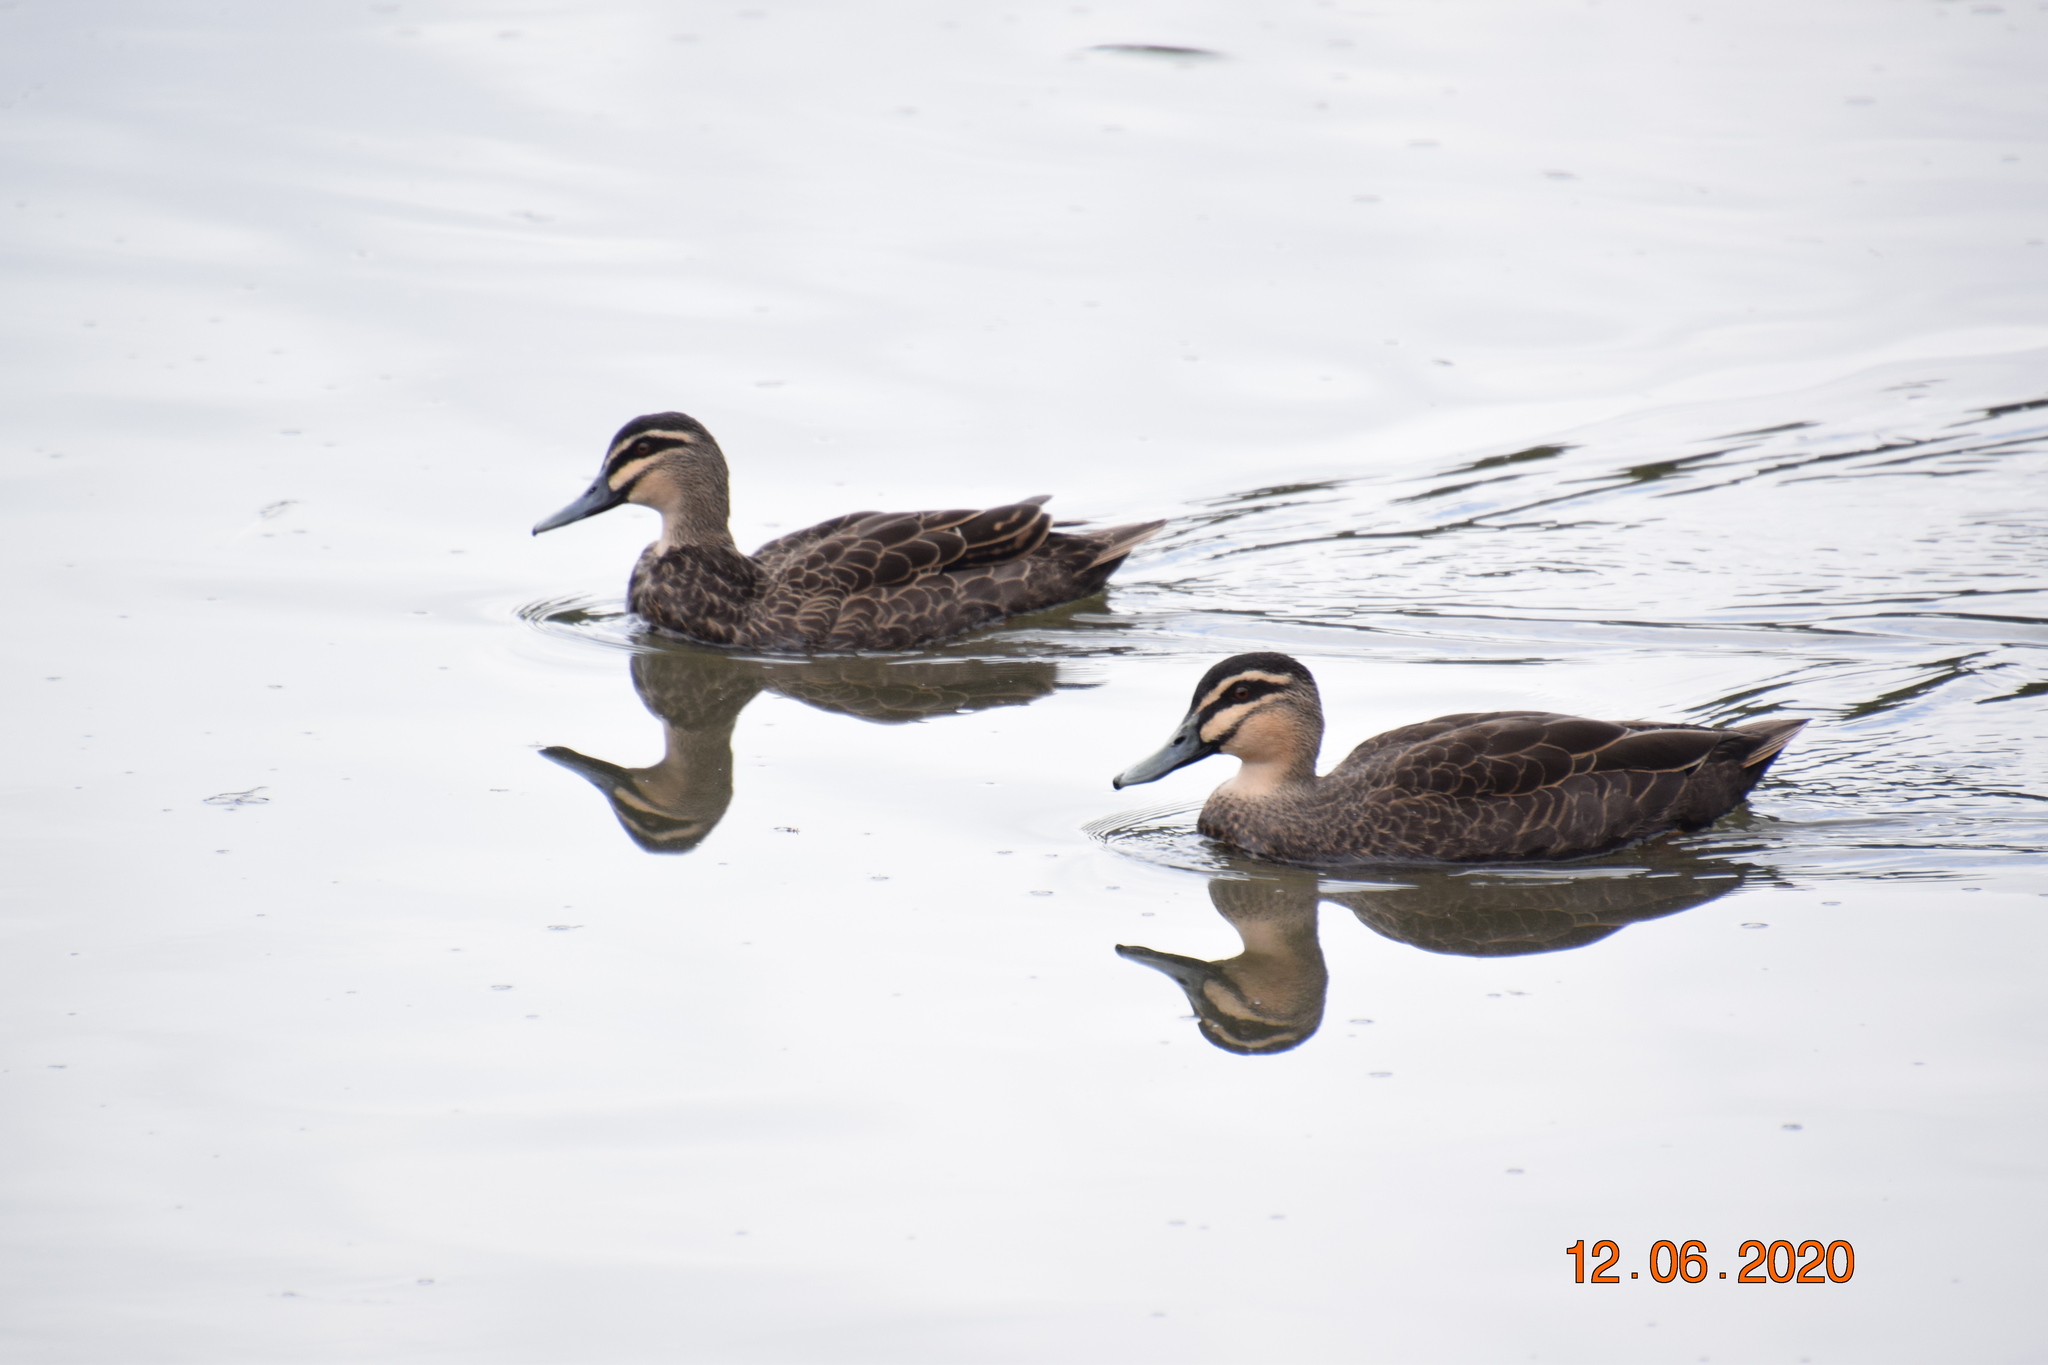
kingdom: Animalia
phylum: Chordata
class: Aves
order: Anseriformes
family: Anatidae
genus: Anas
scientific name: Anas superciliosa
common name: Pacific black duck
